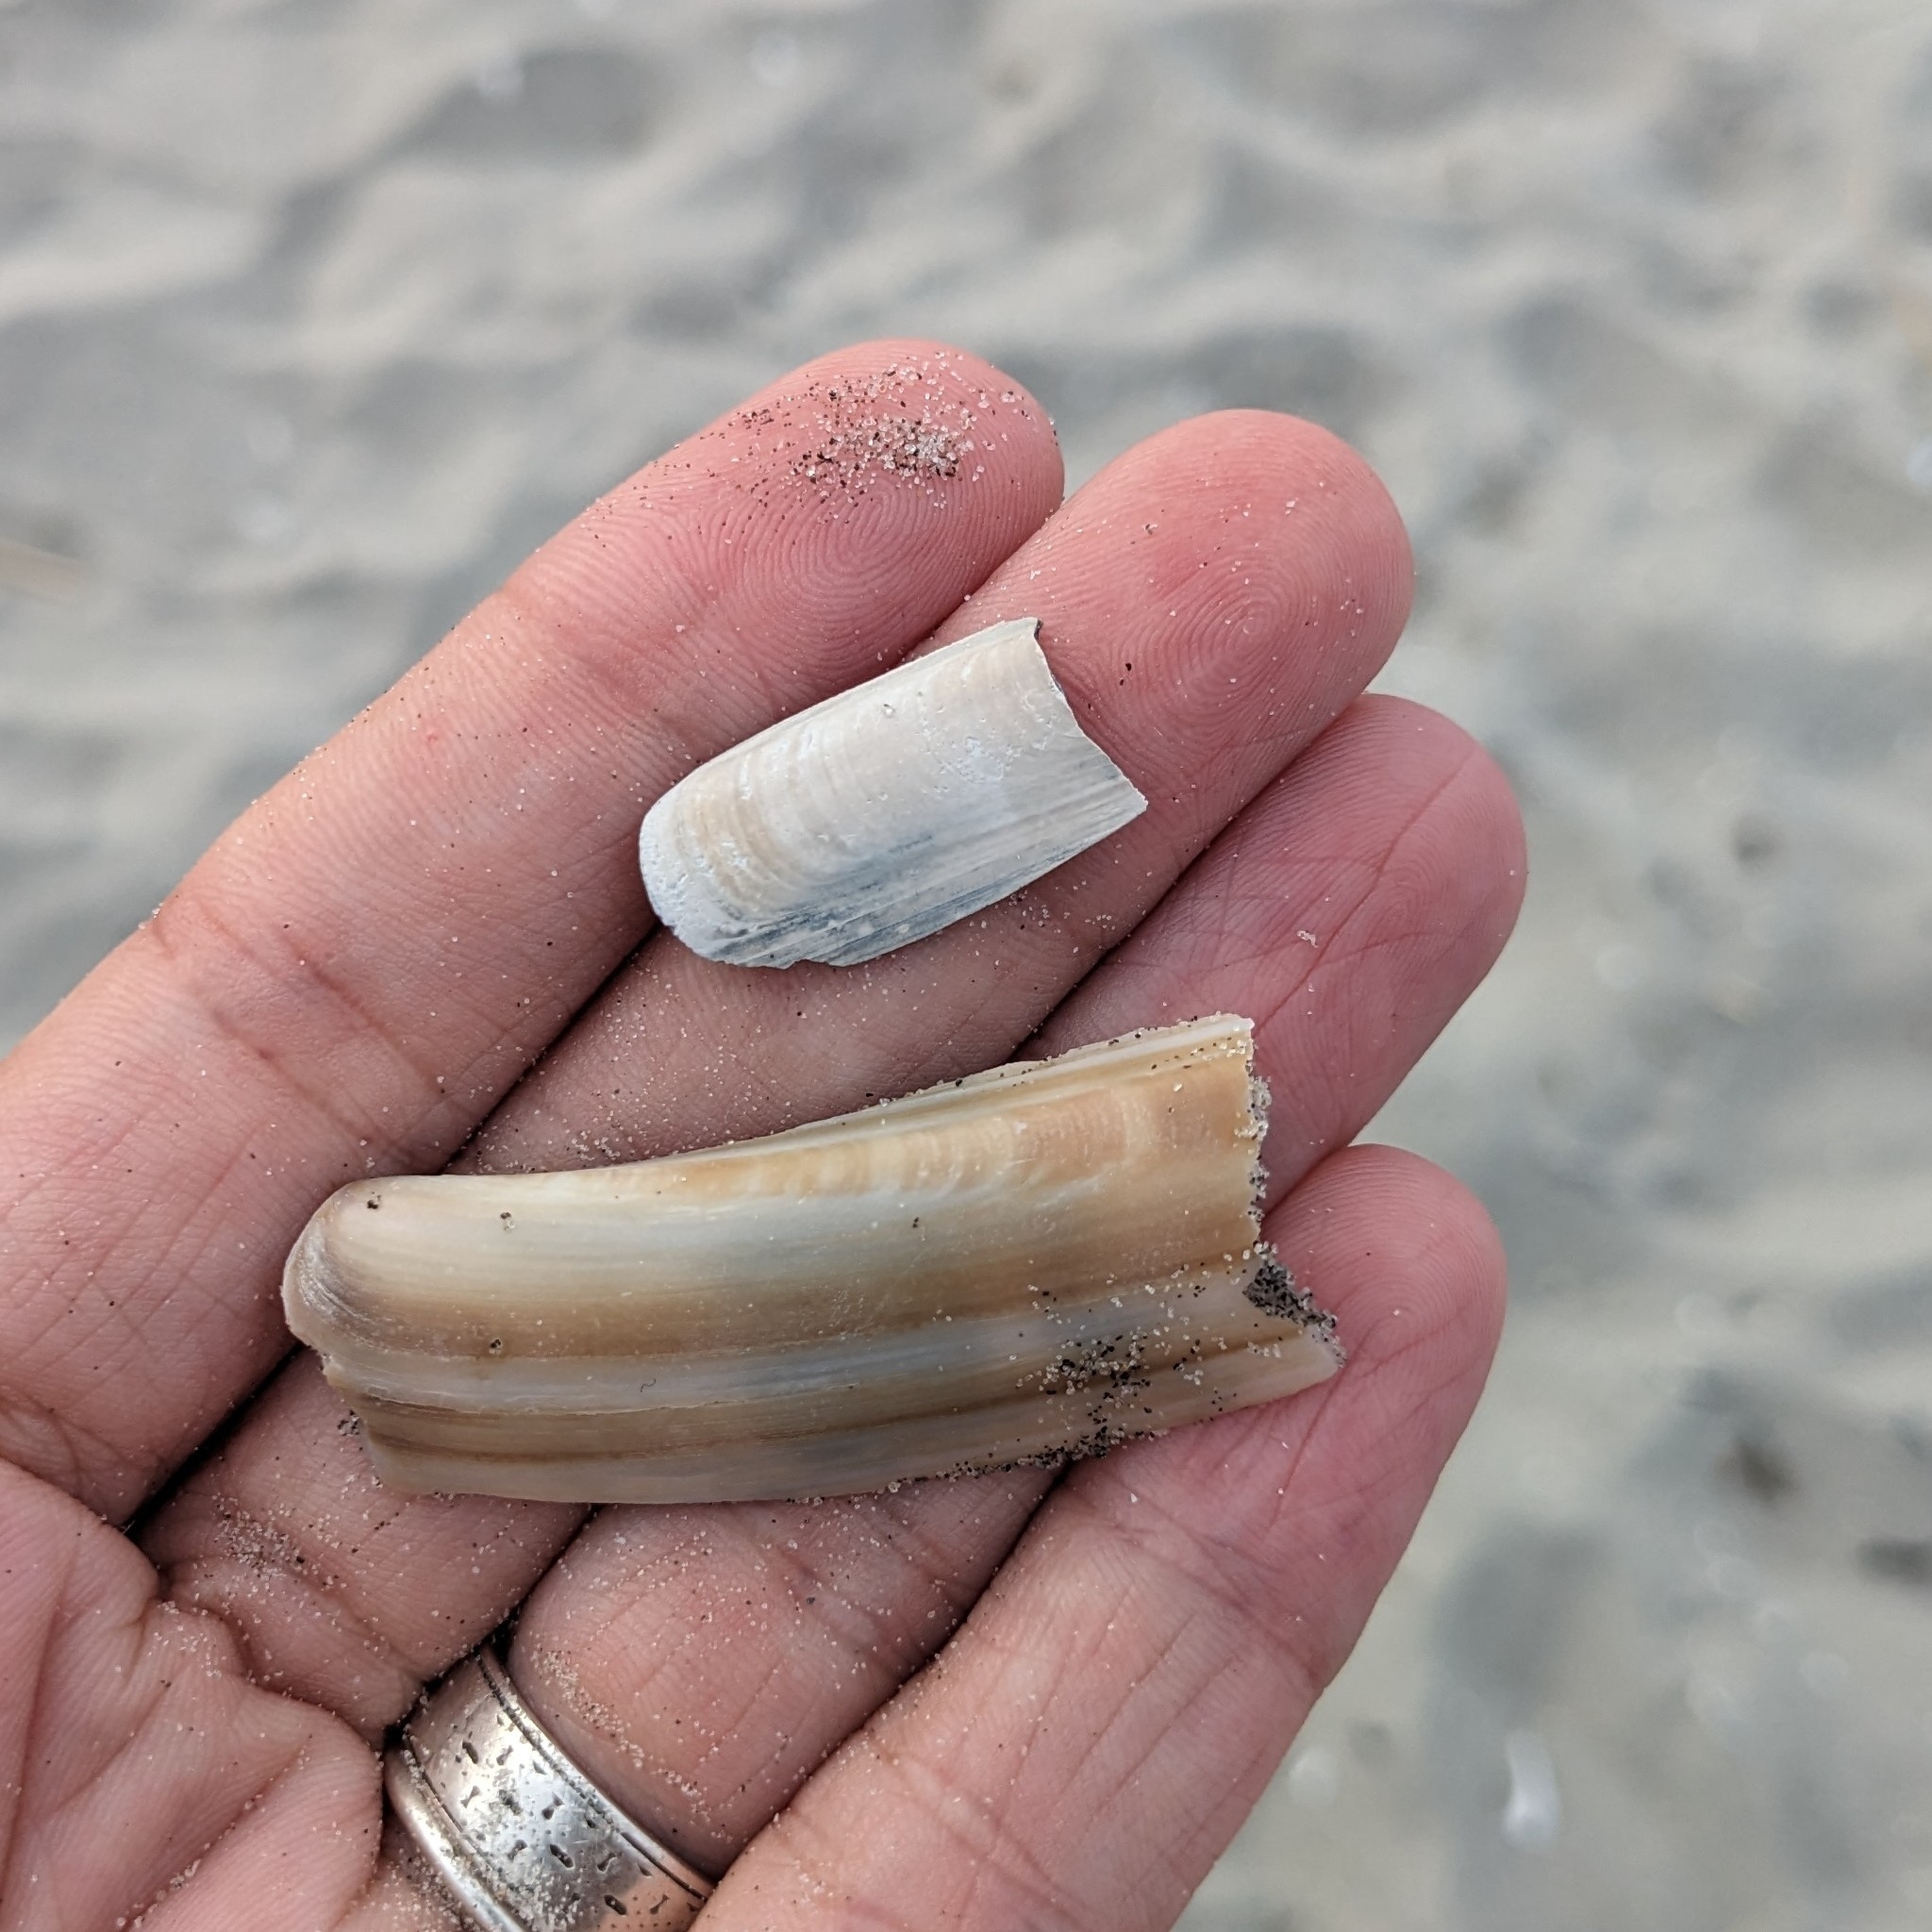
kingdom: Animalia
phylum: Mollusca
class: Bivalvia
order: Adapedonta
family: Pharidae
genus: Ensis
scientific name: Ensis leei
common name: American jack knife clam
